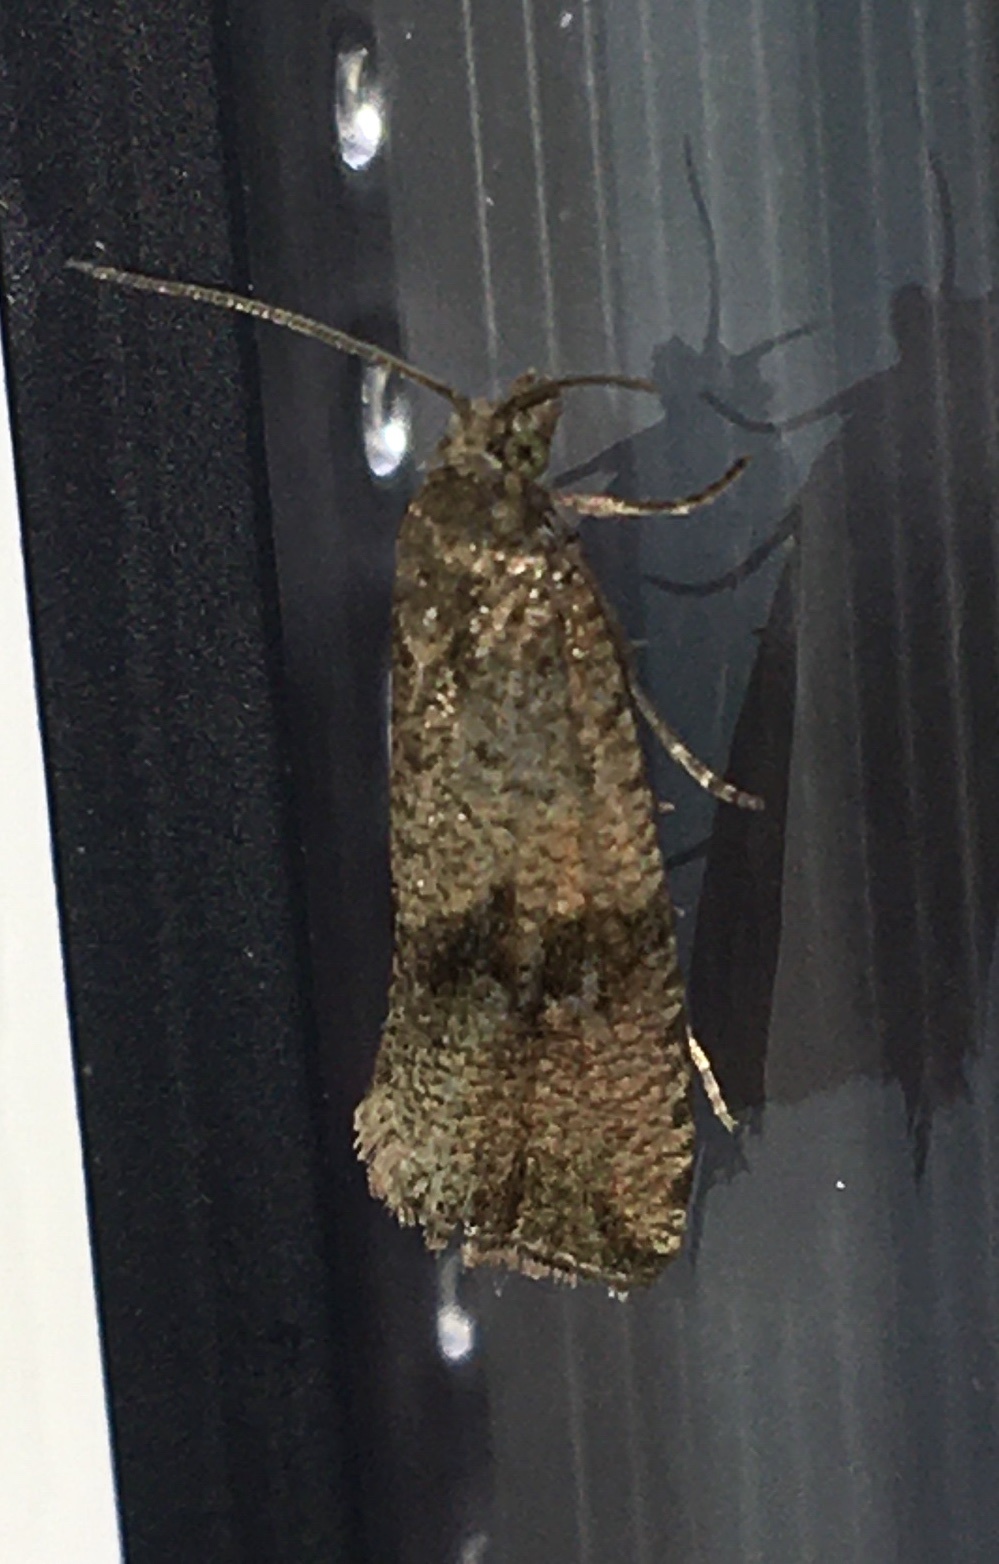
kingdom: Animalia
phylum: Arthropoda
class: Insecta
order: Lepidoptera
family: Tortricidae
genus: Celypha
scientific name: Celypha striana
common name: Barred marble
